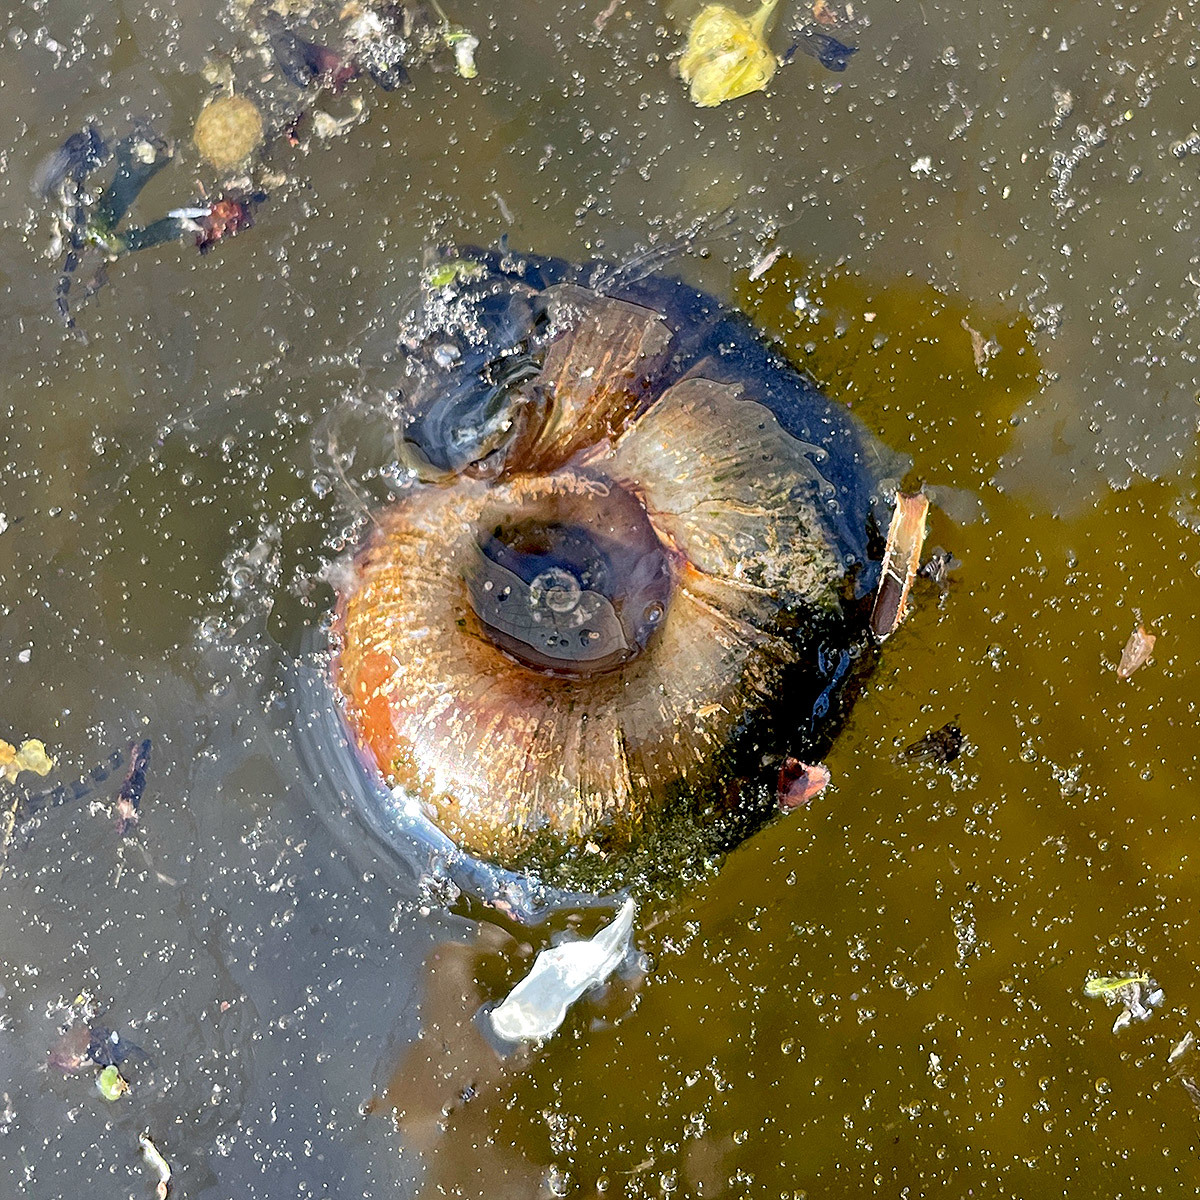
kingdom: Animalia
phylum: Mollusca
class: Gastropoda
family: Planorbidae
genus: Planorbarius
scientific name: Planorbarius corneus
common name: Great ramshorn
